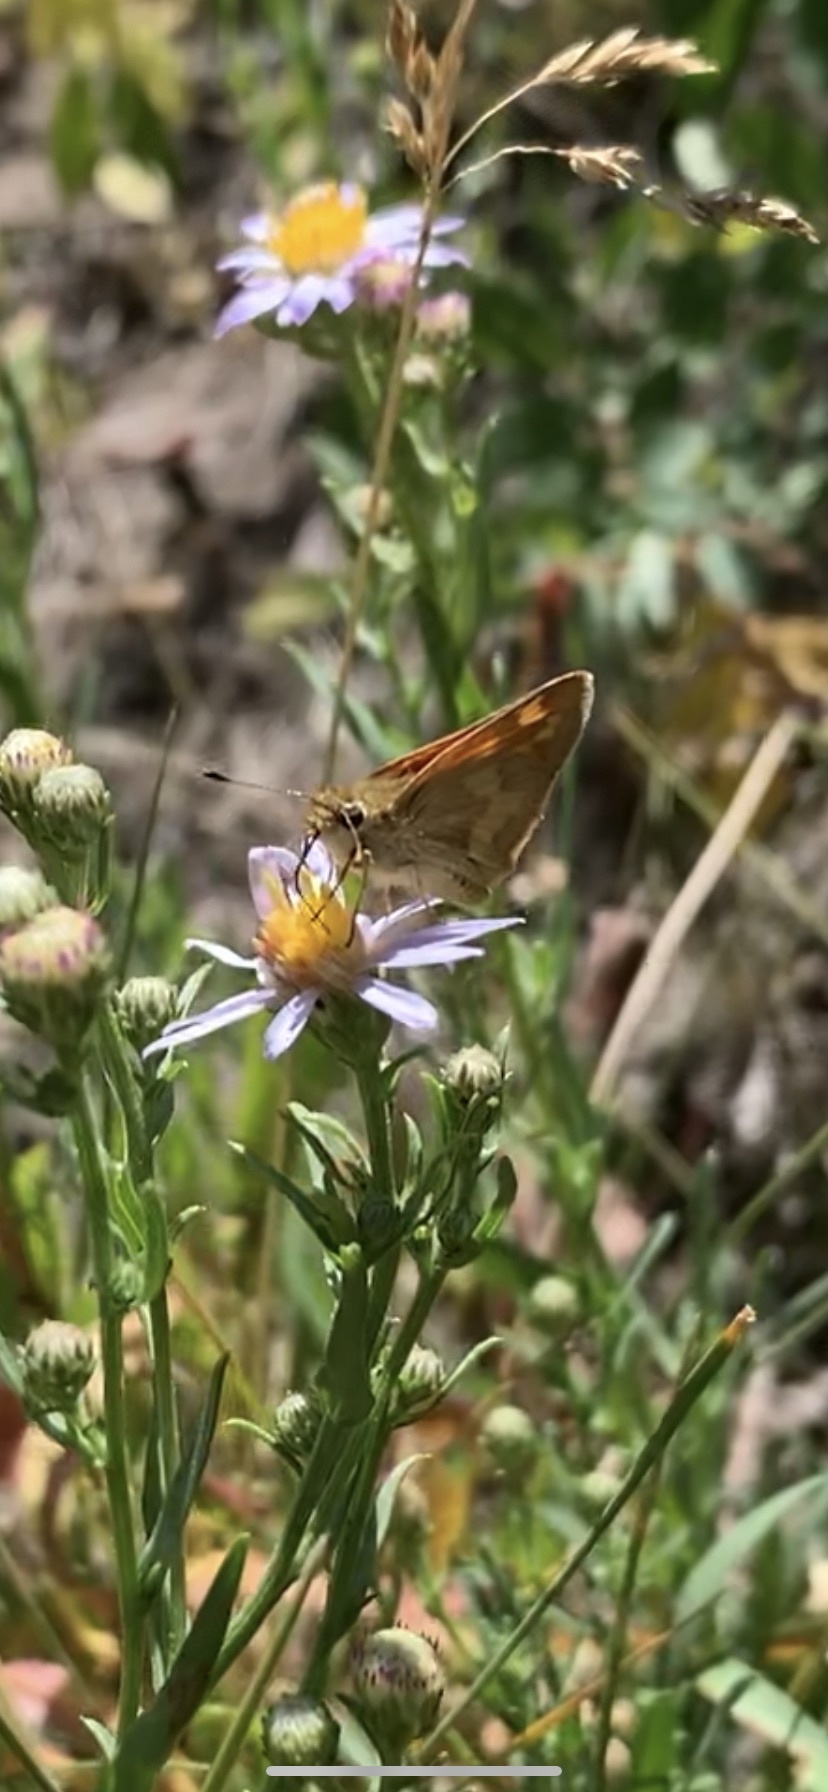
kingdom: Animalia
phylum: Arthropoda
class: Insecta
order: Lepidoptera
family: Hesperiidae
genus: Ochlodes
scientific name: Ochlodes sylvanoides
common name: Woodland skipper
